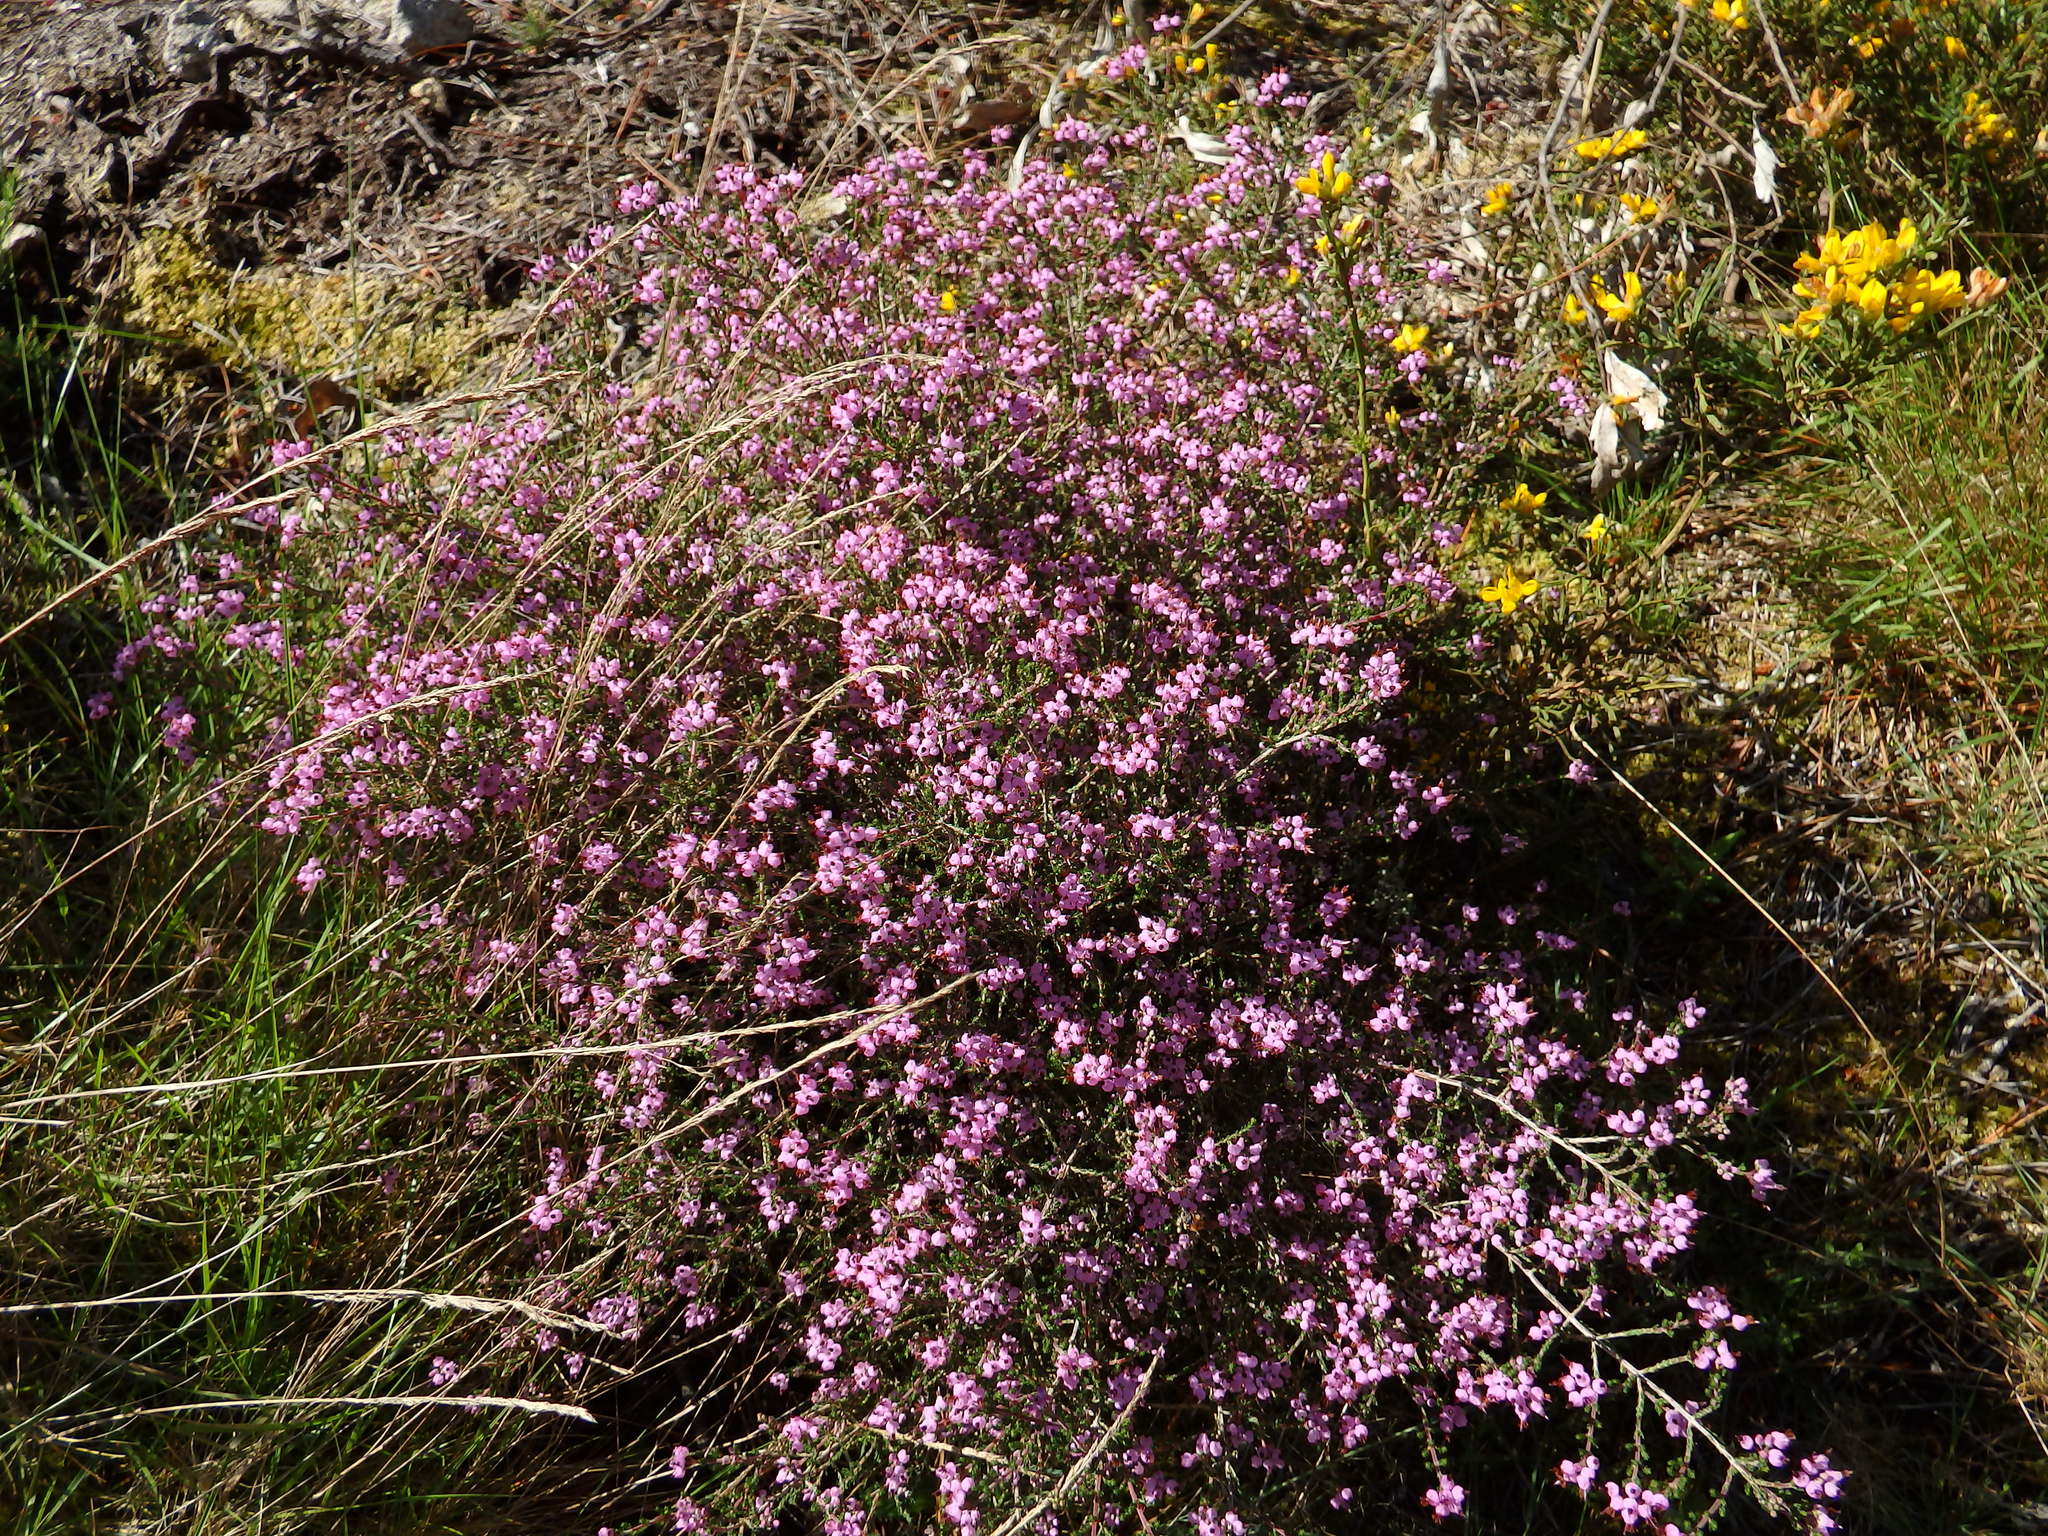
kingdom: Plantae
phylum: Tracheophyta
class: Magnoliopsida
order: Ericales
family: Ericaceae
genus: Erica
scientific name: Erica umbellata
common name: Dwarf spanish heath
